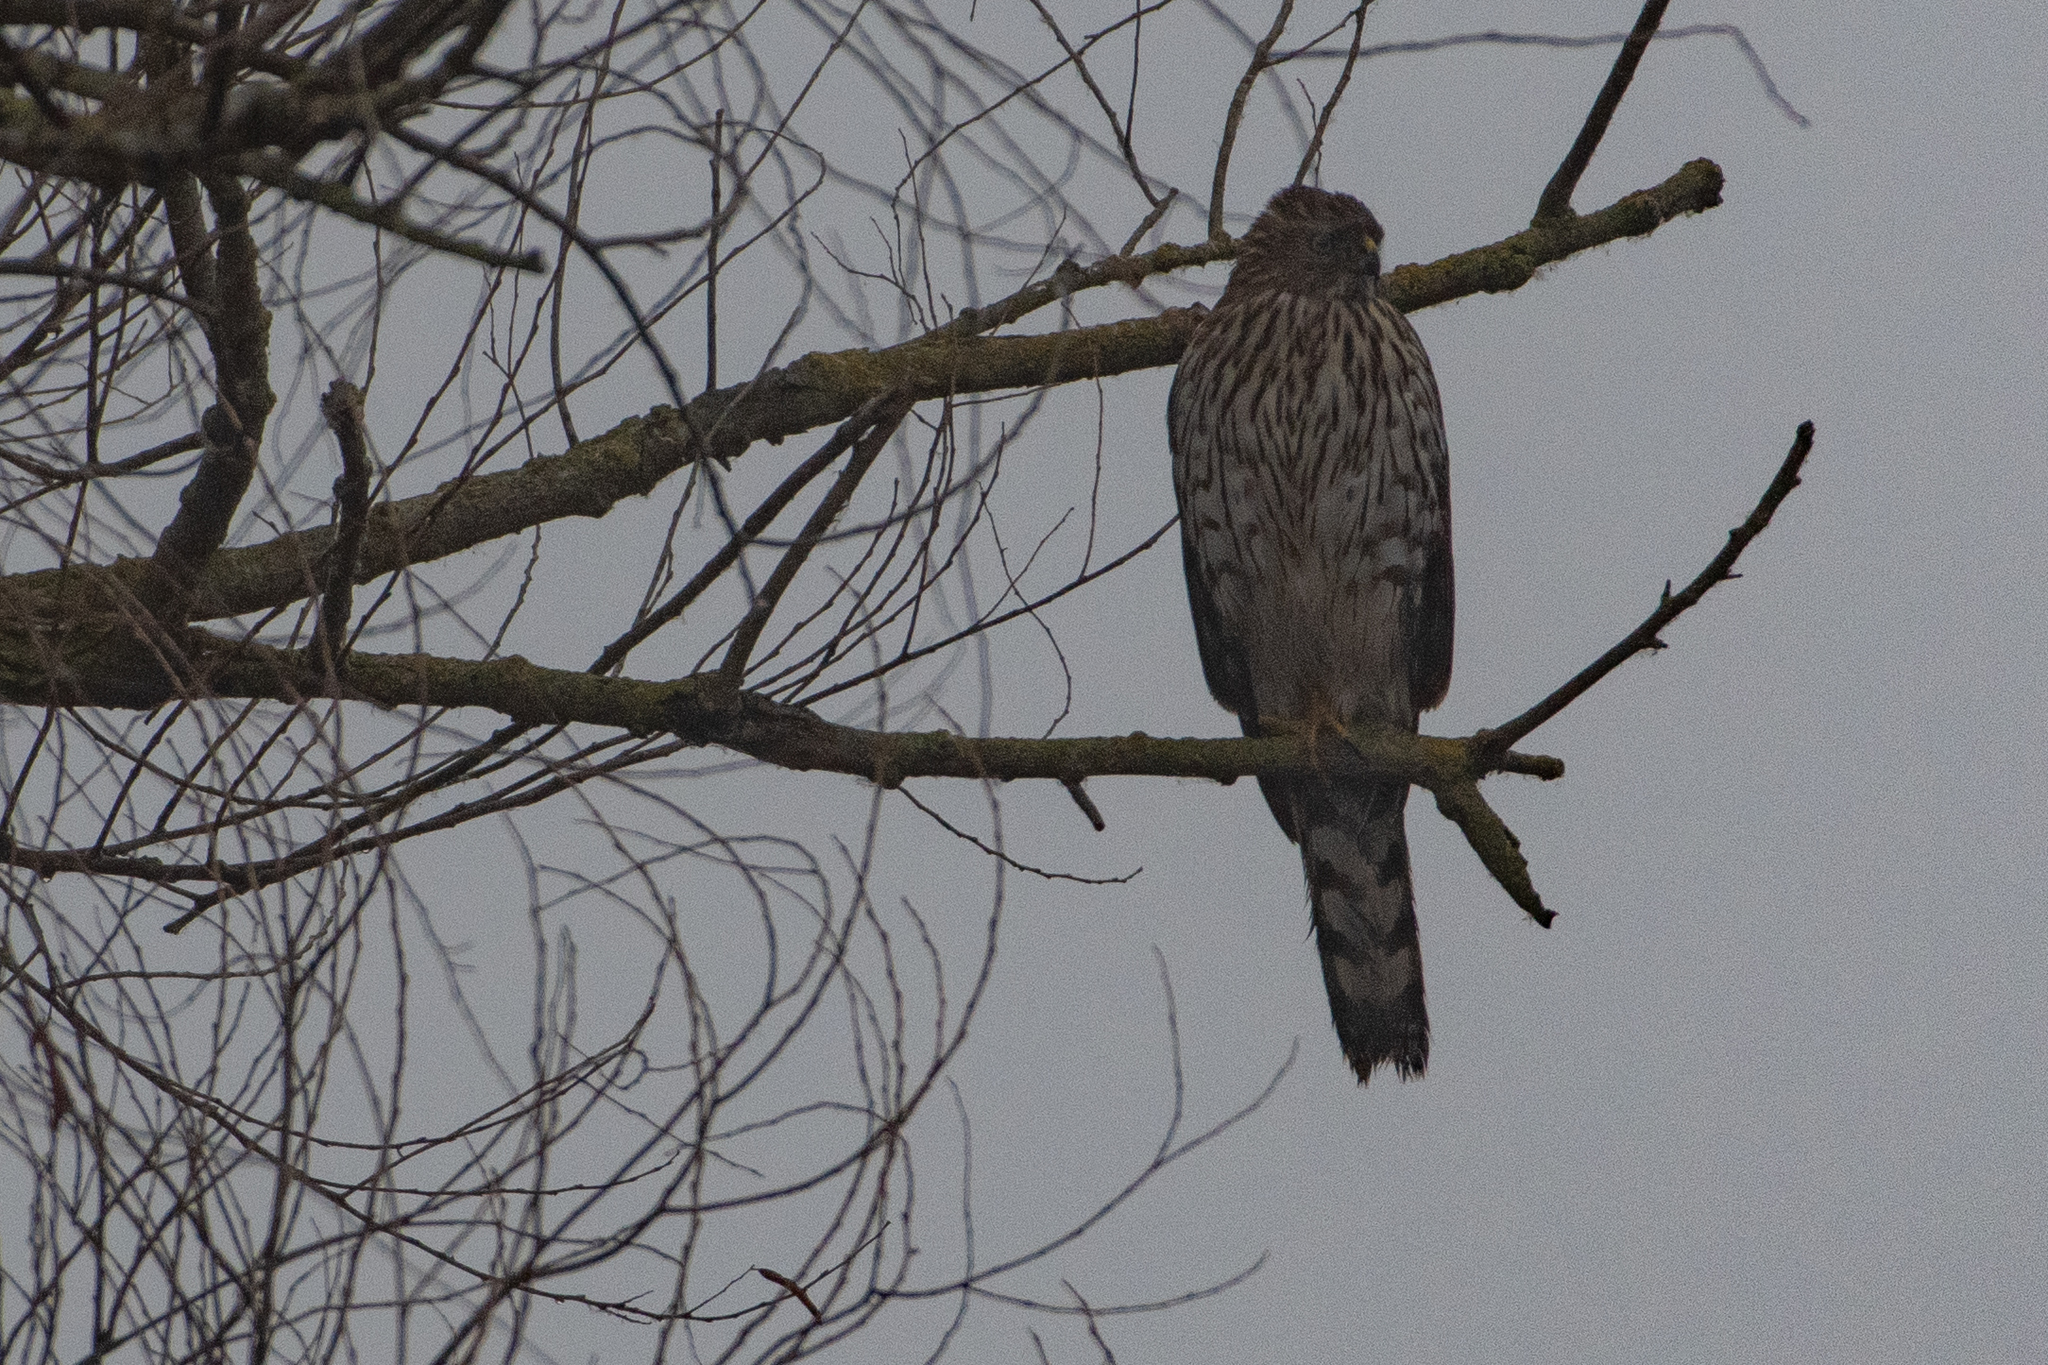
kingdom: Animalia
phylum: Chordata
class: Aves
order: Accipitriformes
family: Accipitridae
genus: Accipiter
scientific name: Accipiter cooperii
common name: Cooper's hawk
